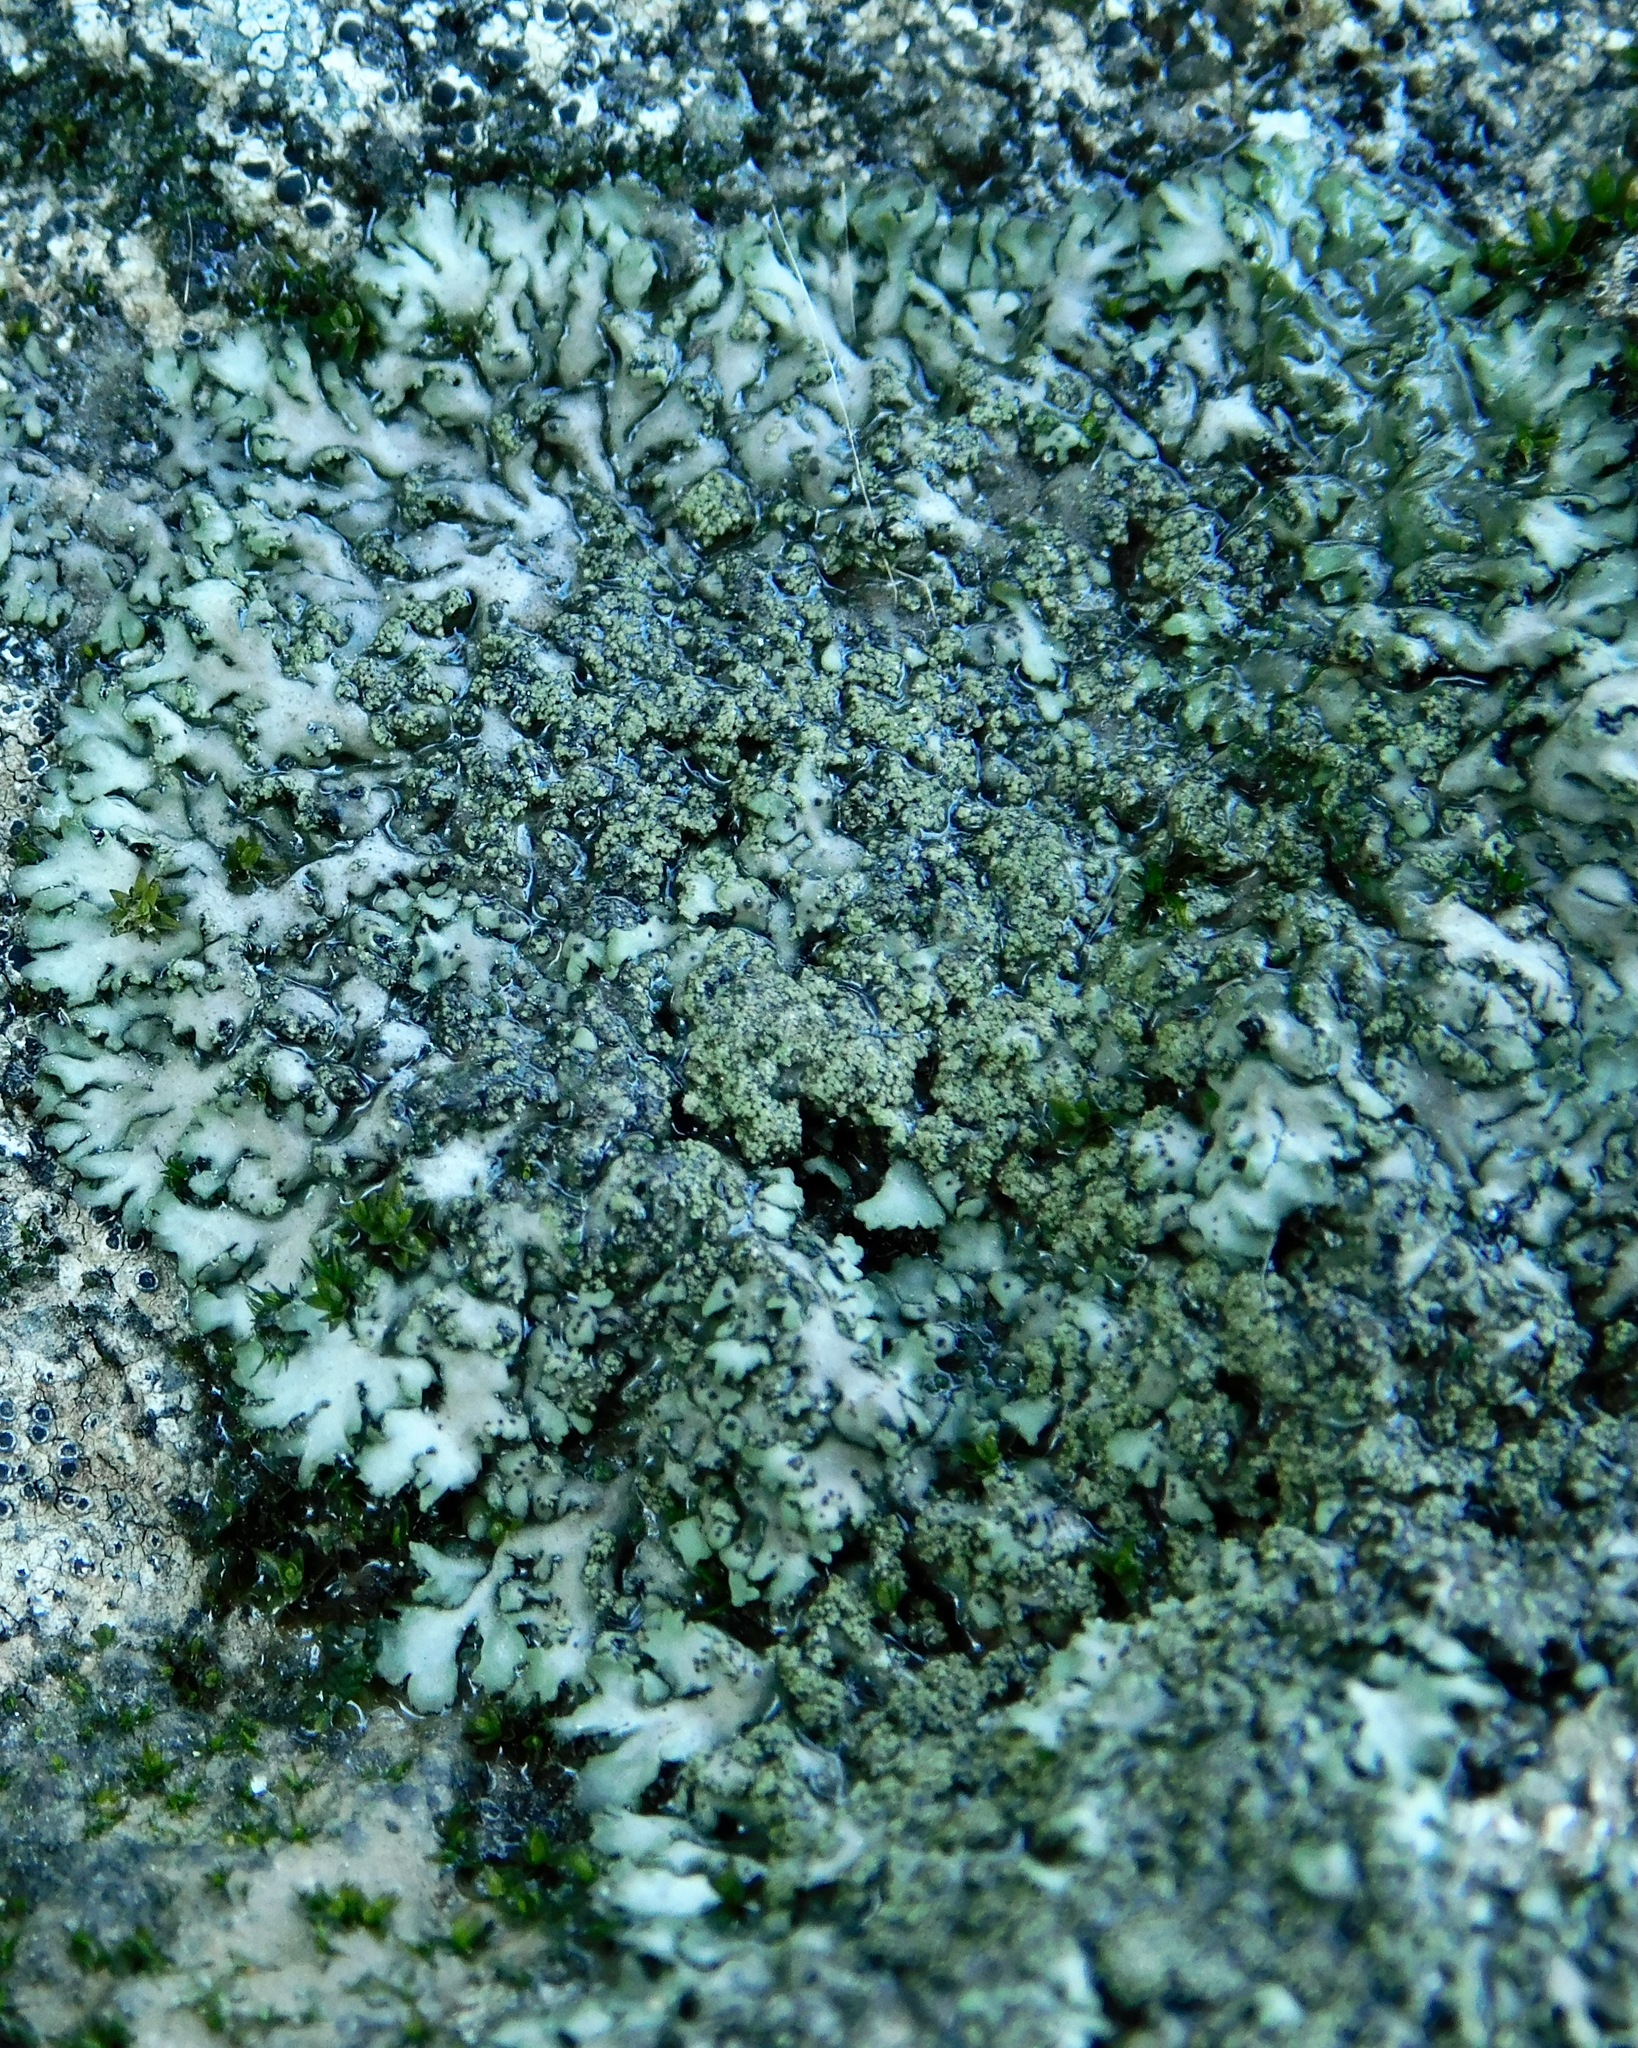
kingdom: Fungi
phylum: Ascomycota
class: Lecanoromycetes
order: Caliciales
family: Physciaceae
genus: Phaeophyscia
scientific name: Phaeophyscia sciastra
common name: Dark shadow lichen
